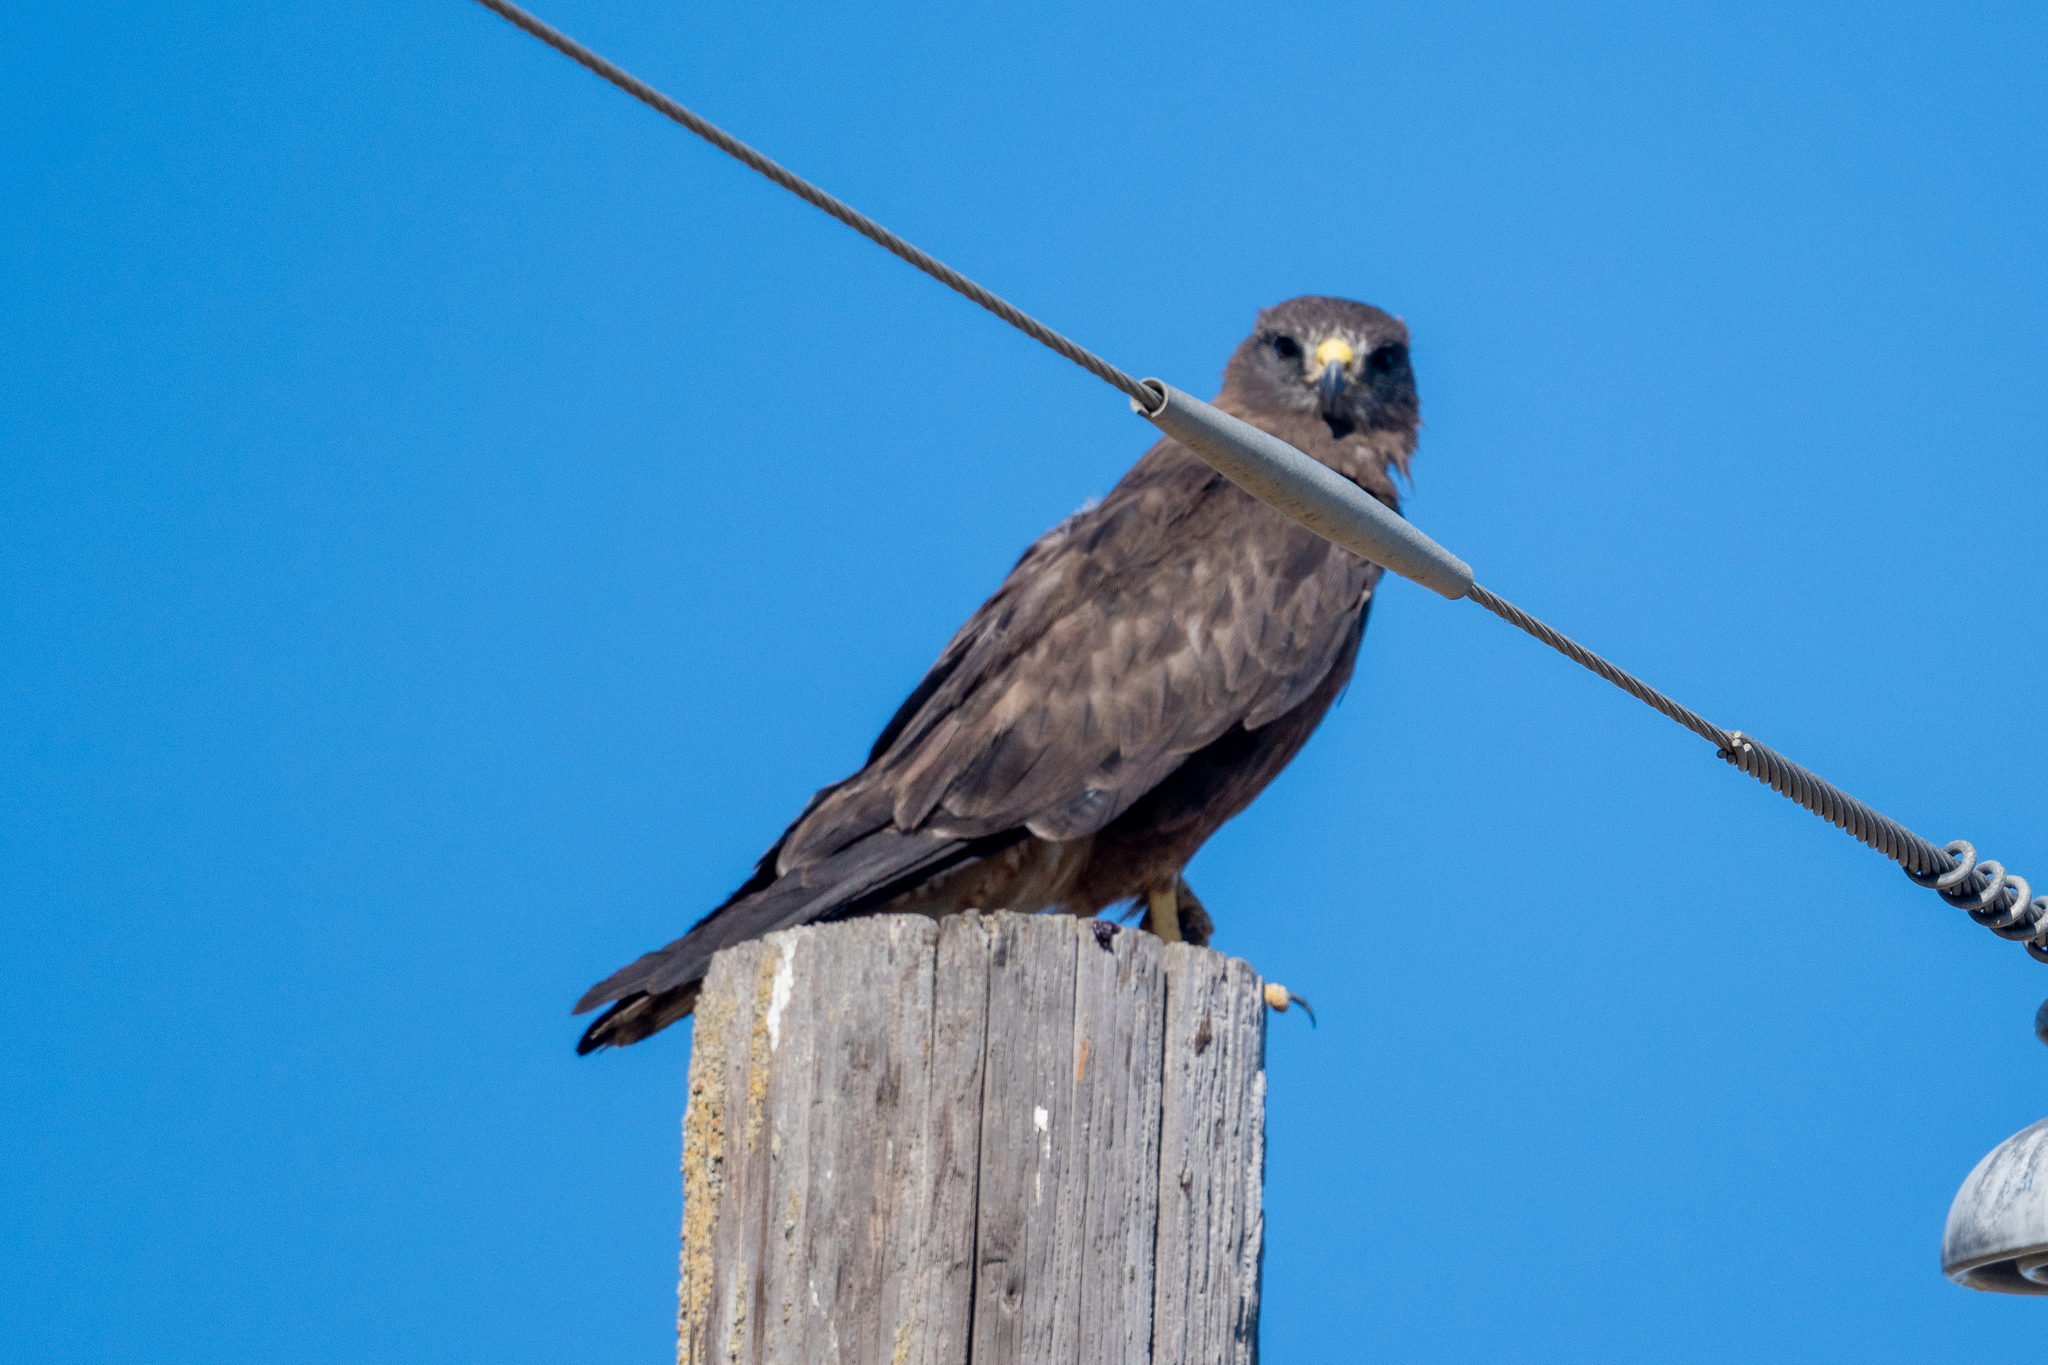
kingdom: Animalia
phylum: Chordata
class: Aves
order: Accipitriformes
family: Accipitridae
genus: Buteo
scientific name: Buteo swainsoni
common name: Swainson's hawk
